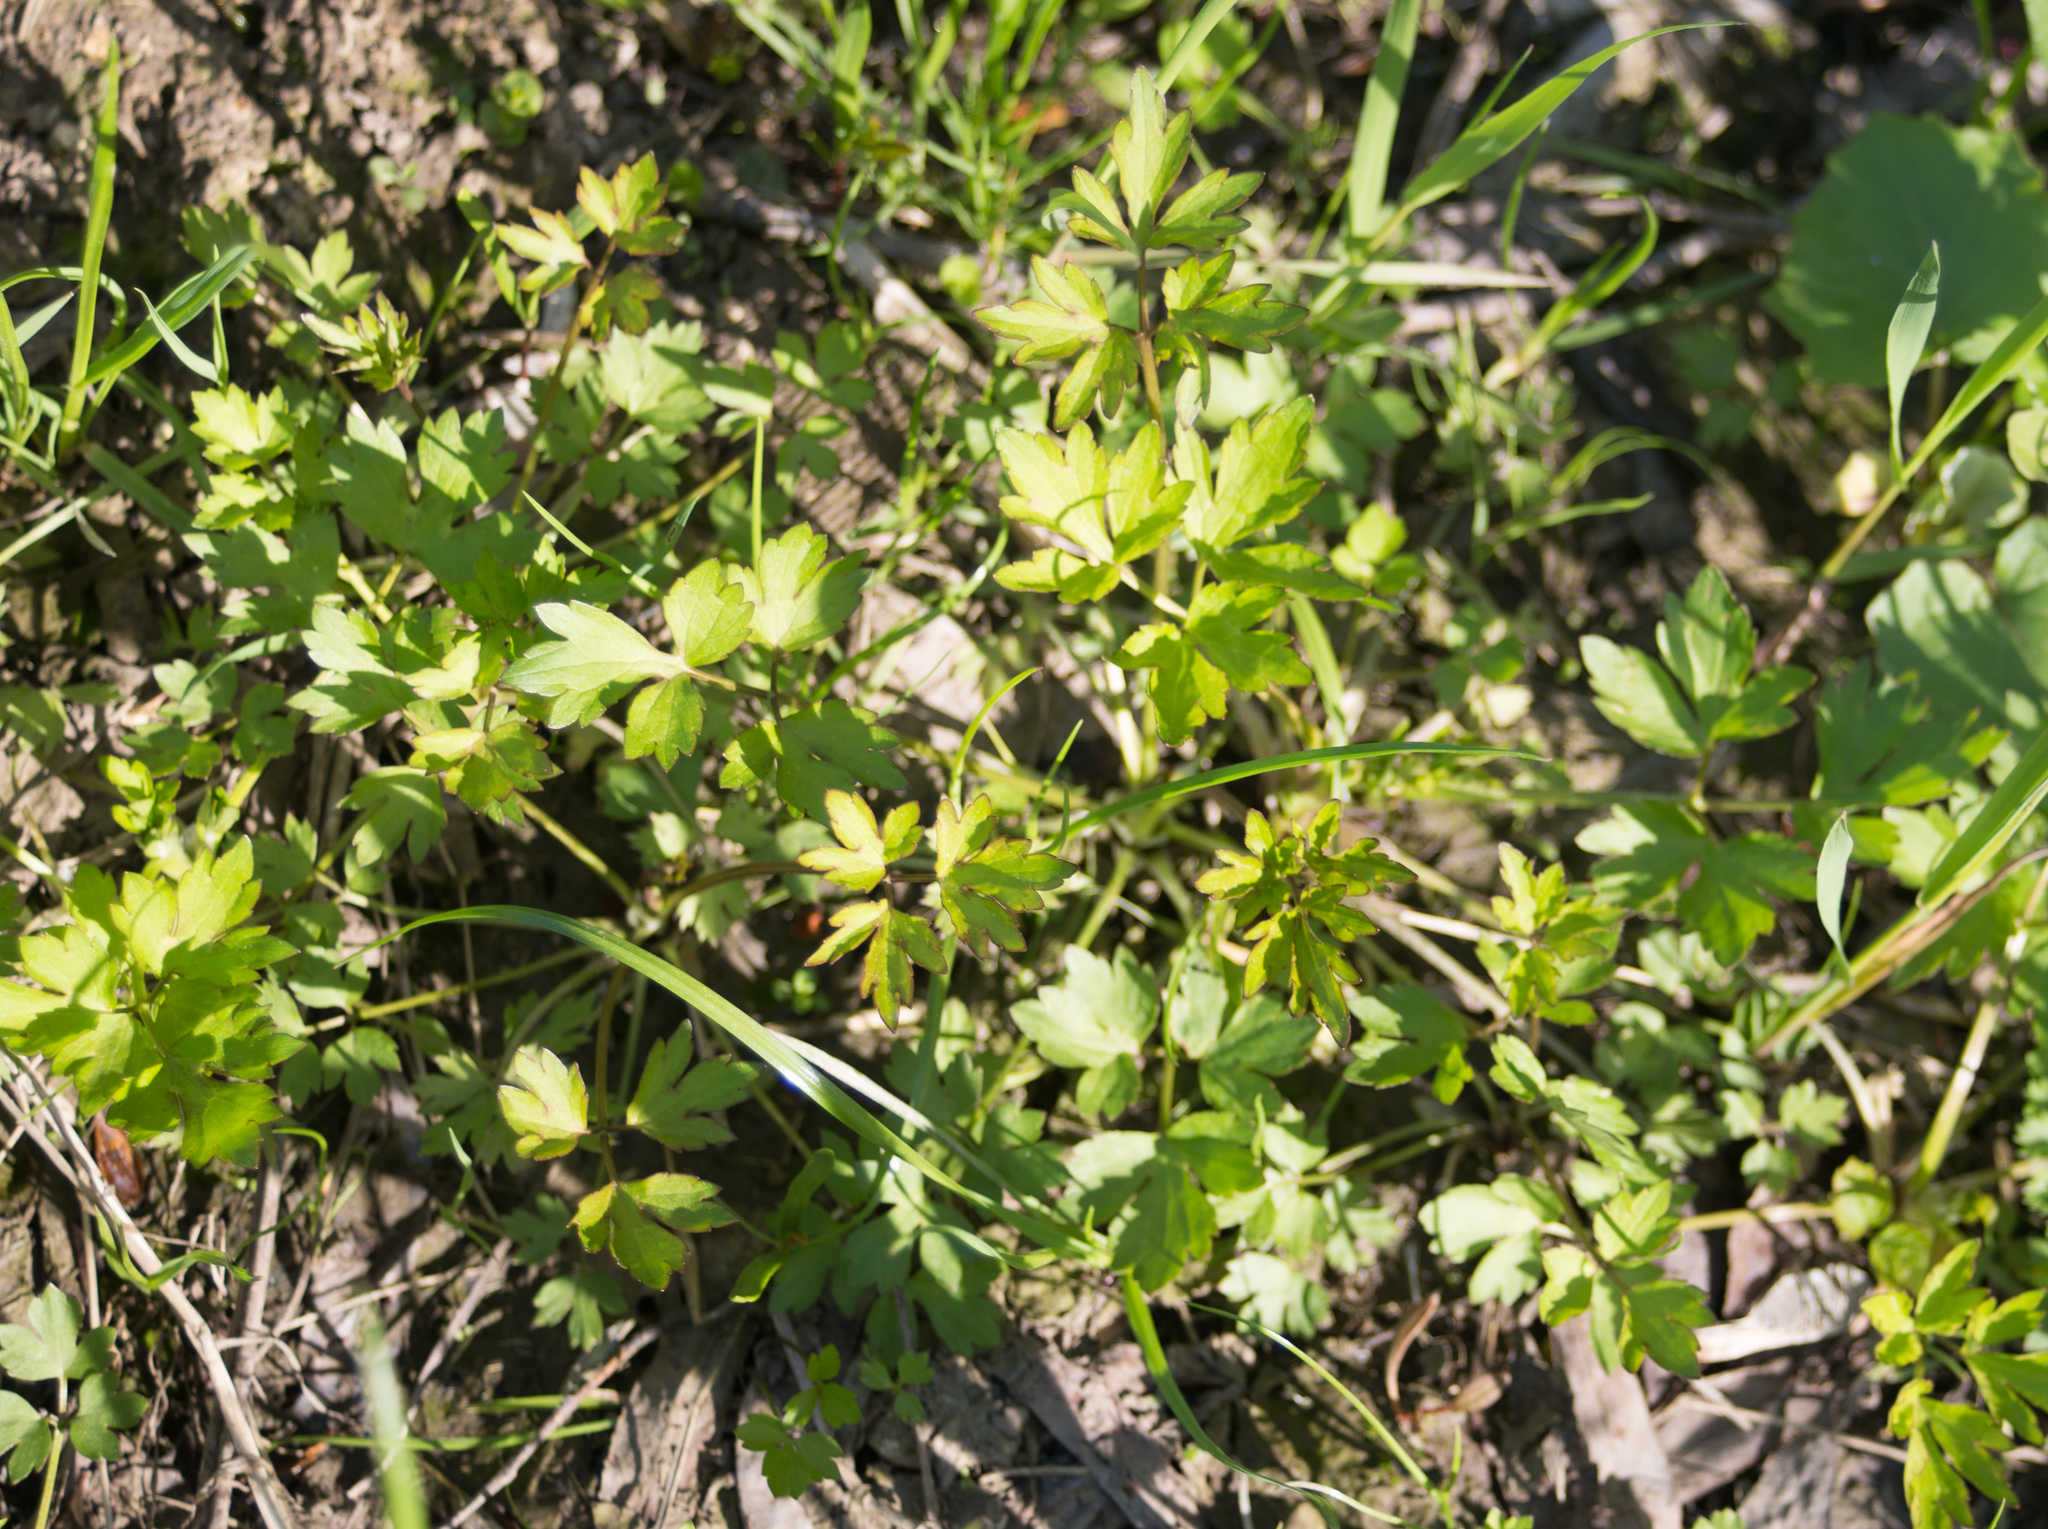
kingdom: Plantae
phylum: Tracheophyta
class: Magnoliopsida
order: Ranunculales
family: Ranunculaceae
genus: Ranunculus
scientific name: Ranunculus repens
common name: Creeping buttercup
